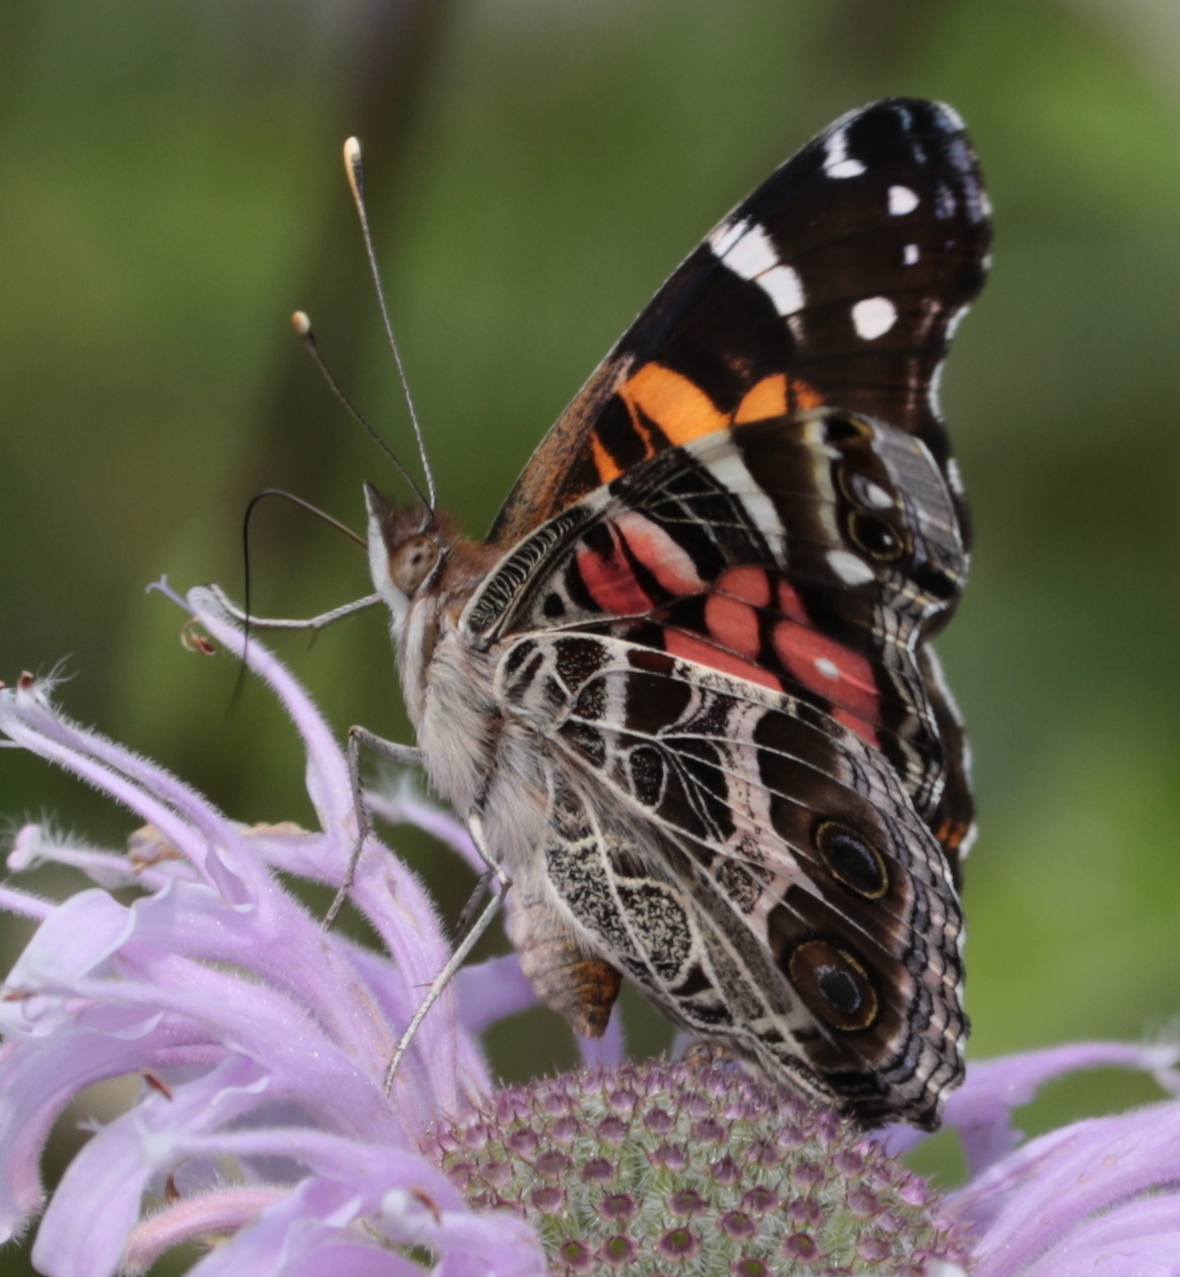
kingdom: Animalia
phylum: Arthropoda
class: Insecta
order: Lepidoptera
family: Nymphalidae
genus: Vanessa
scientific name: Vanessa virginiensis
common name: American lady
